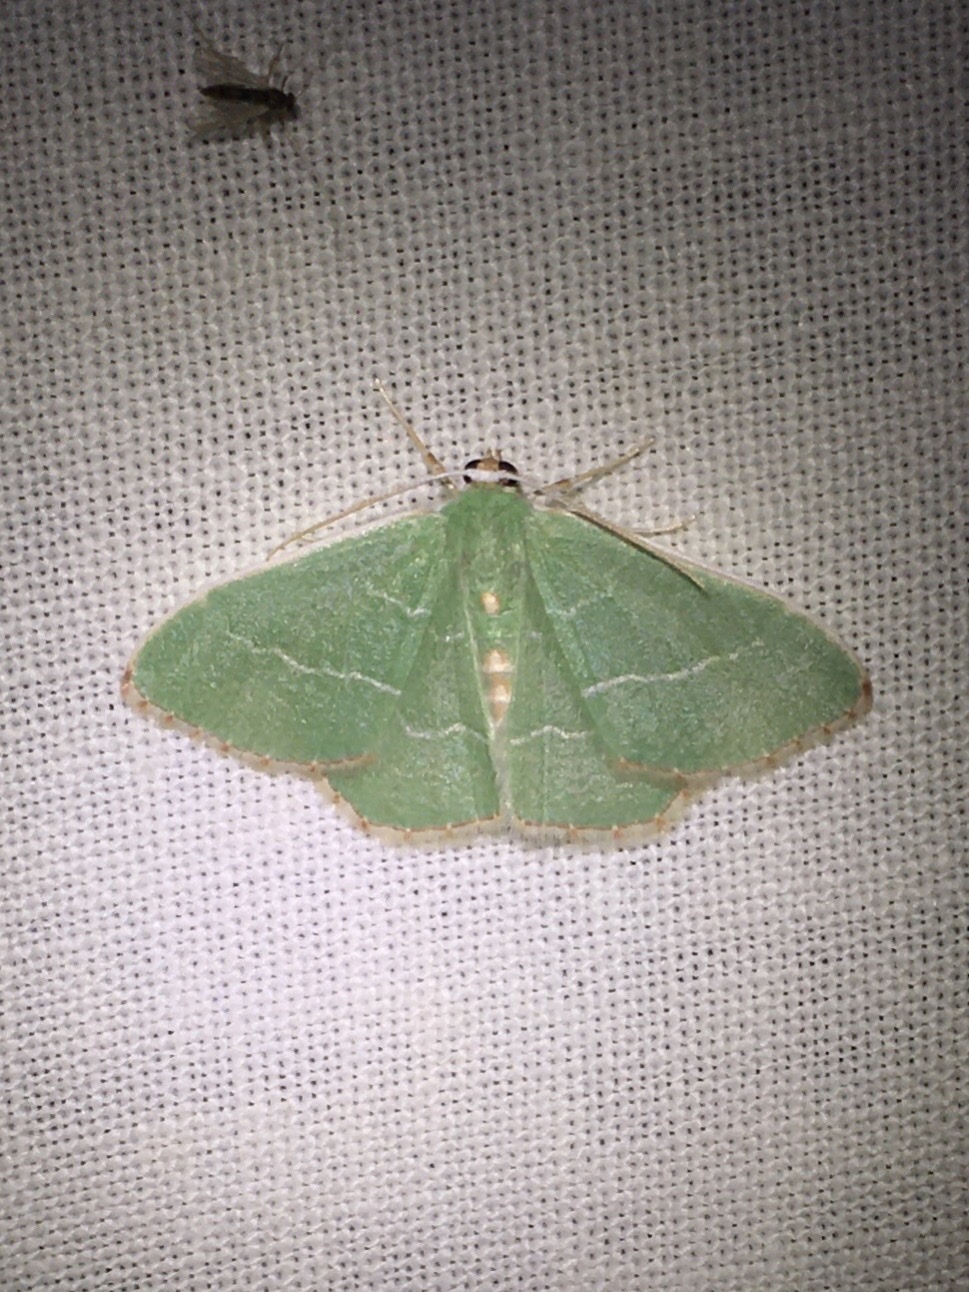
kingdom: Animalia
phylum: Arthropoda
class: Insecta
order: Lepidoptera
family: Geometridae
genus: Nemoria
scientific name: Nemoria bistriaria
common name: Red-fringed emerald
